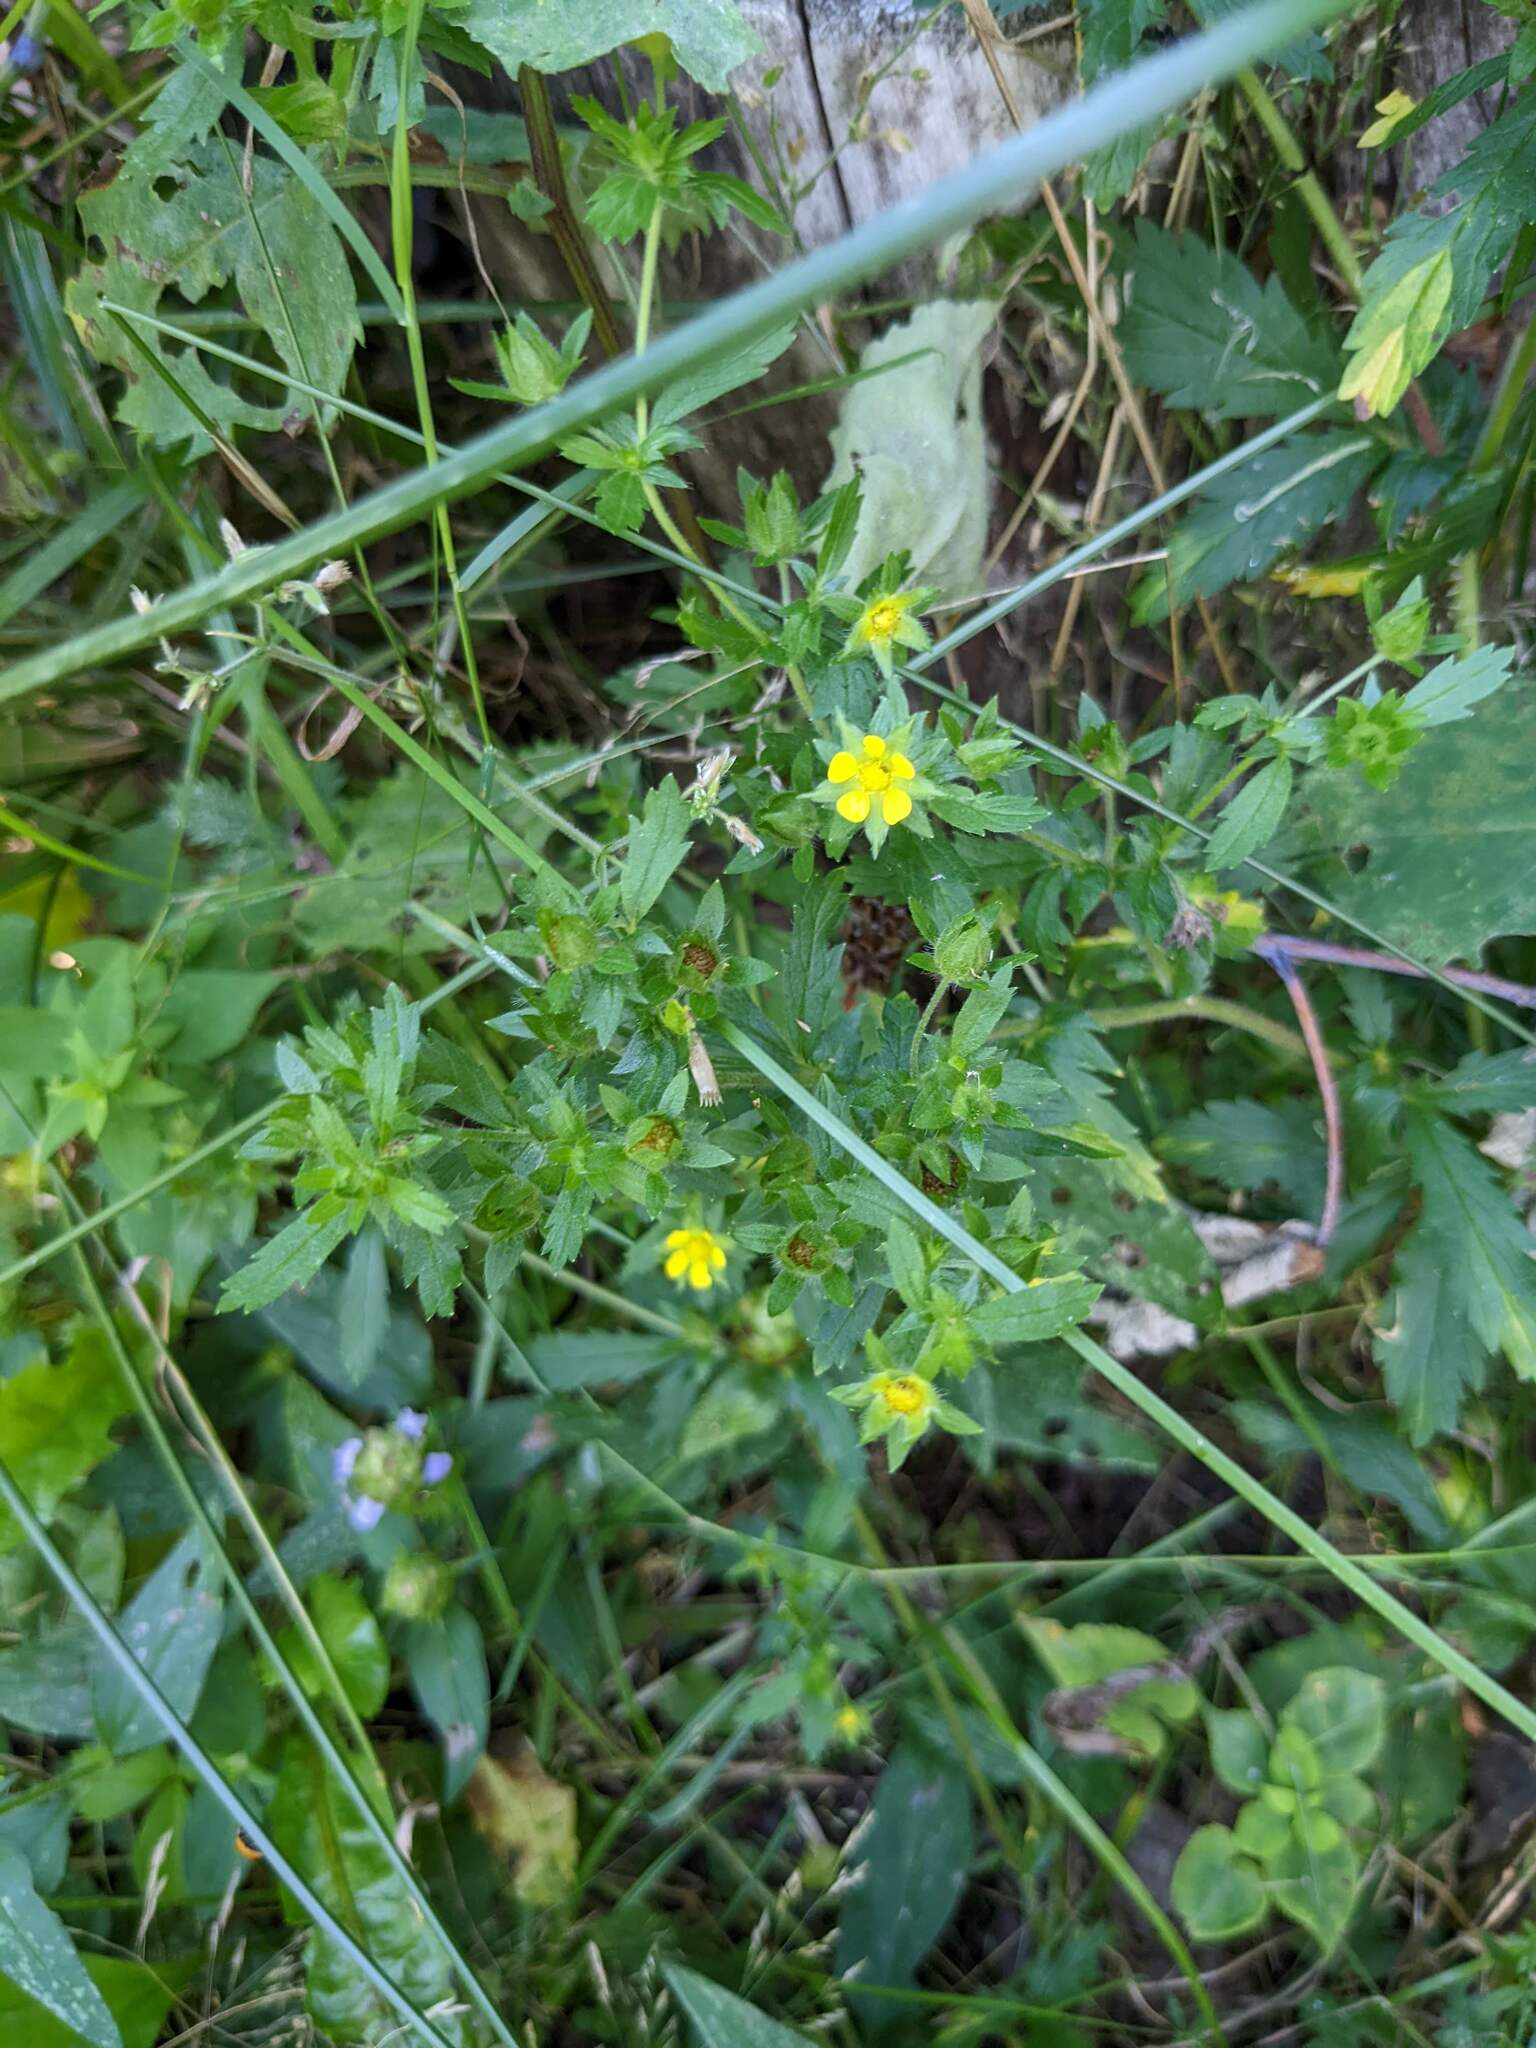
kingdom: Plantae
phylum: Tracheophyta
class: Magnoliopsida
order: Rosales
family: Rosaceae
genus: Potentilla
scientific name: Potentilla norvegica
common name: Ternate-leaved cinquefoil
